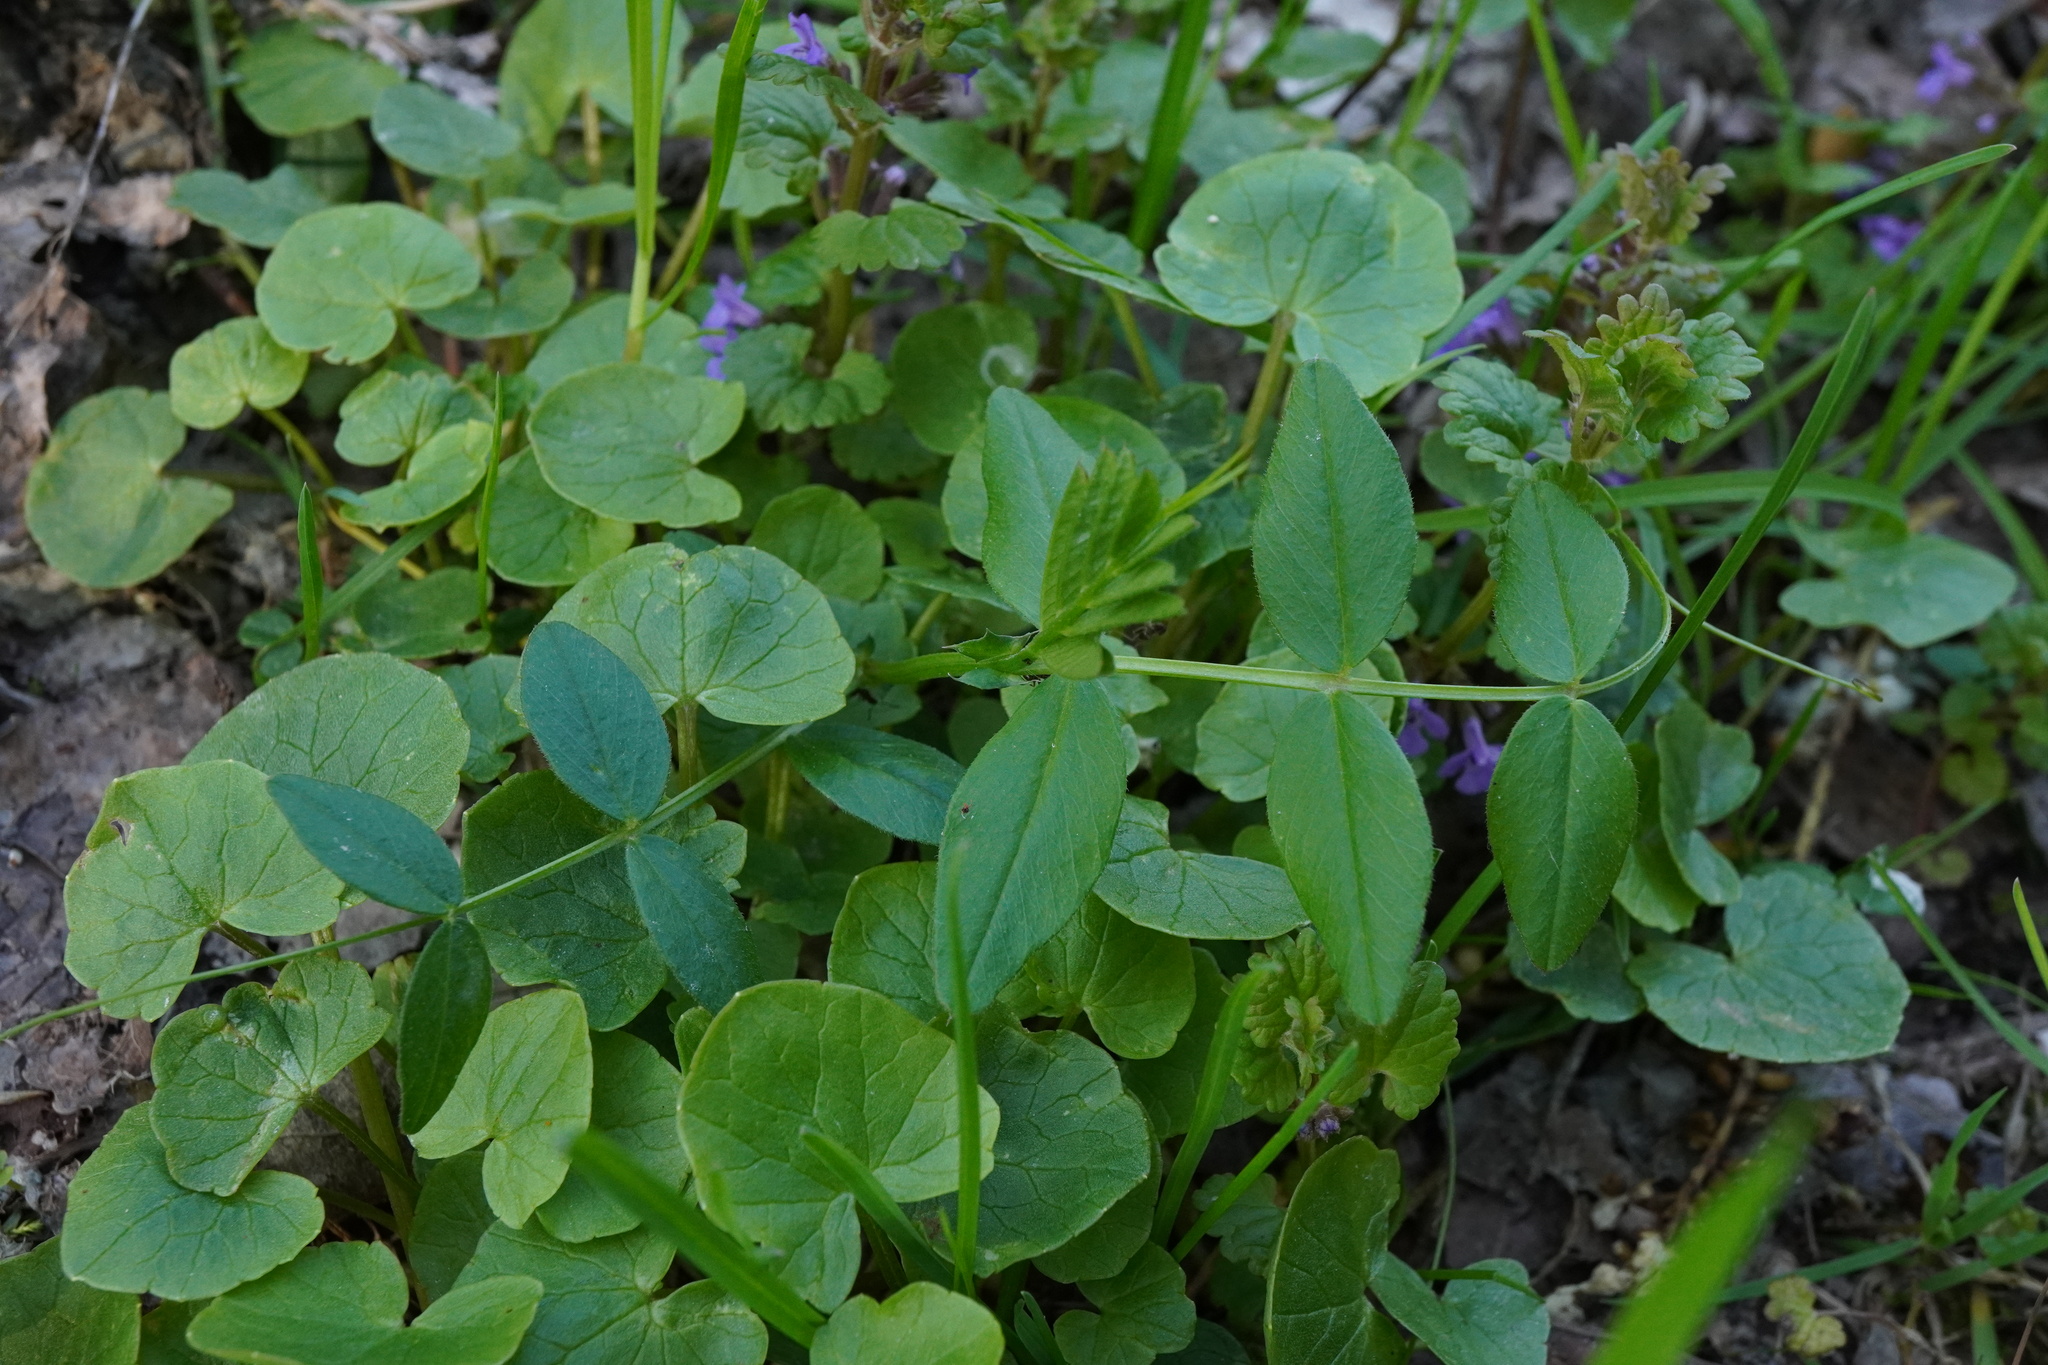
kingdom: Plantae
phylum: Tracheophyta
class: Magnoliopsida
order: Fabales
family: Fabaceae
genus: Vicia
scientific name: Vicia sepium
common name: Bush vetch
